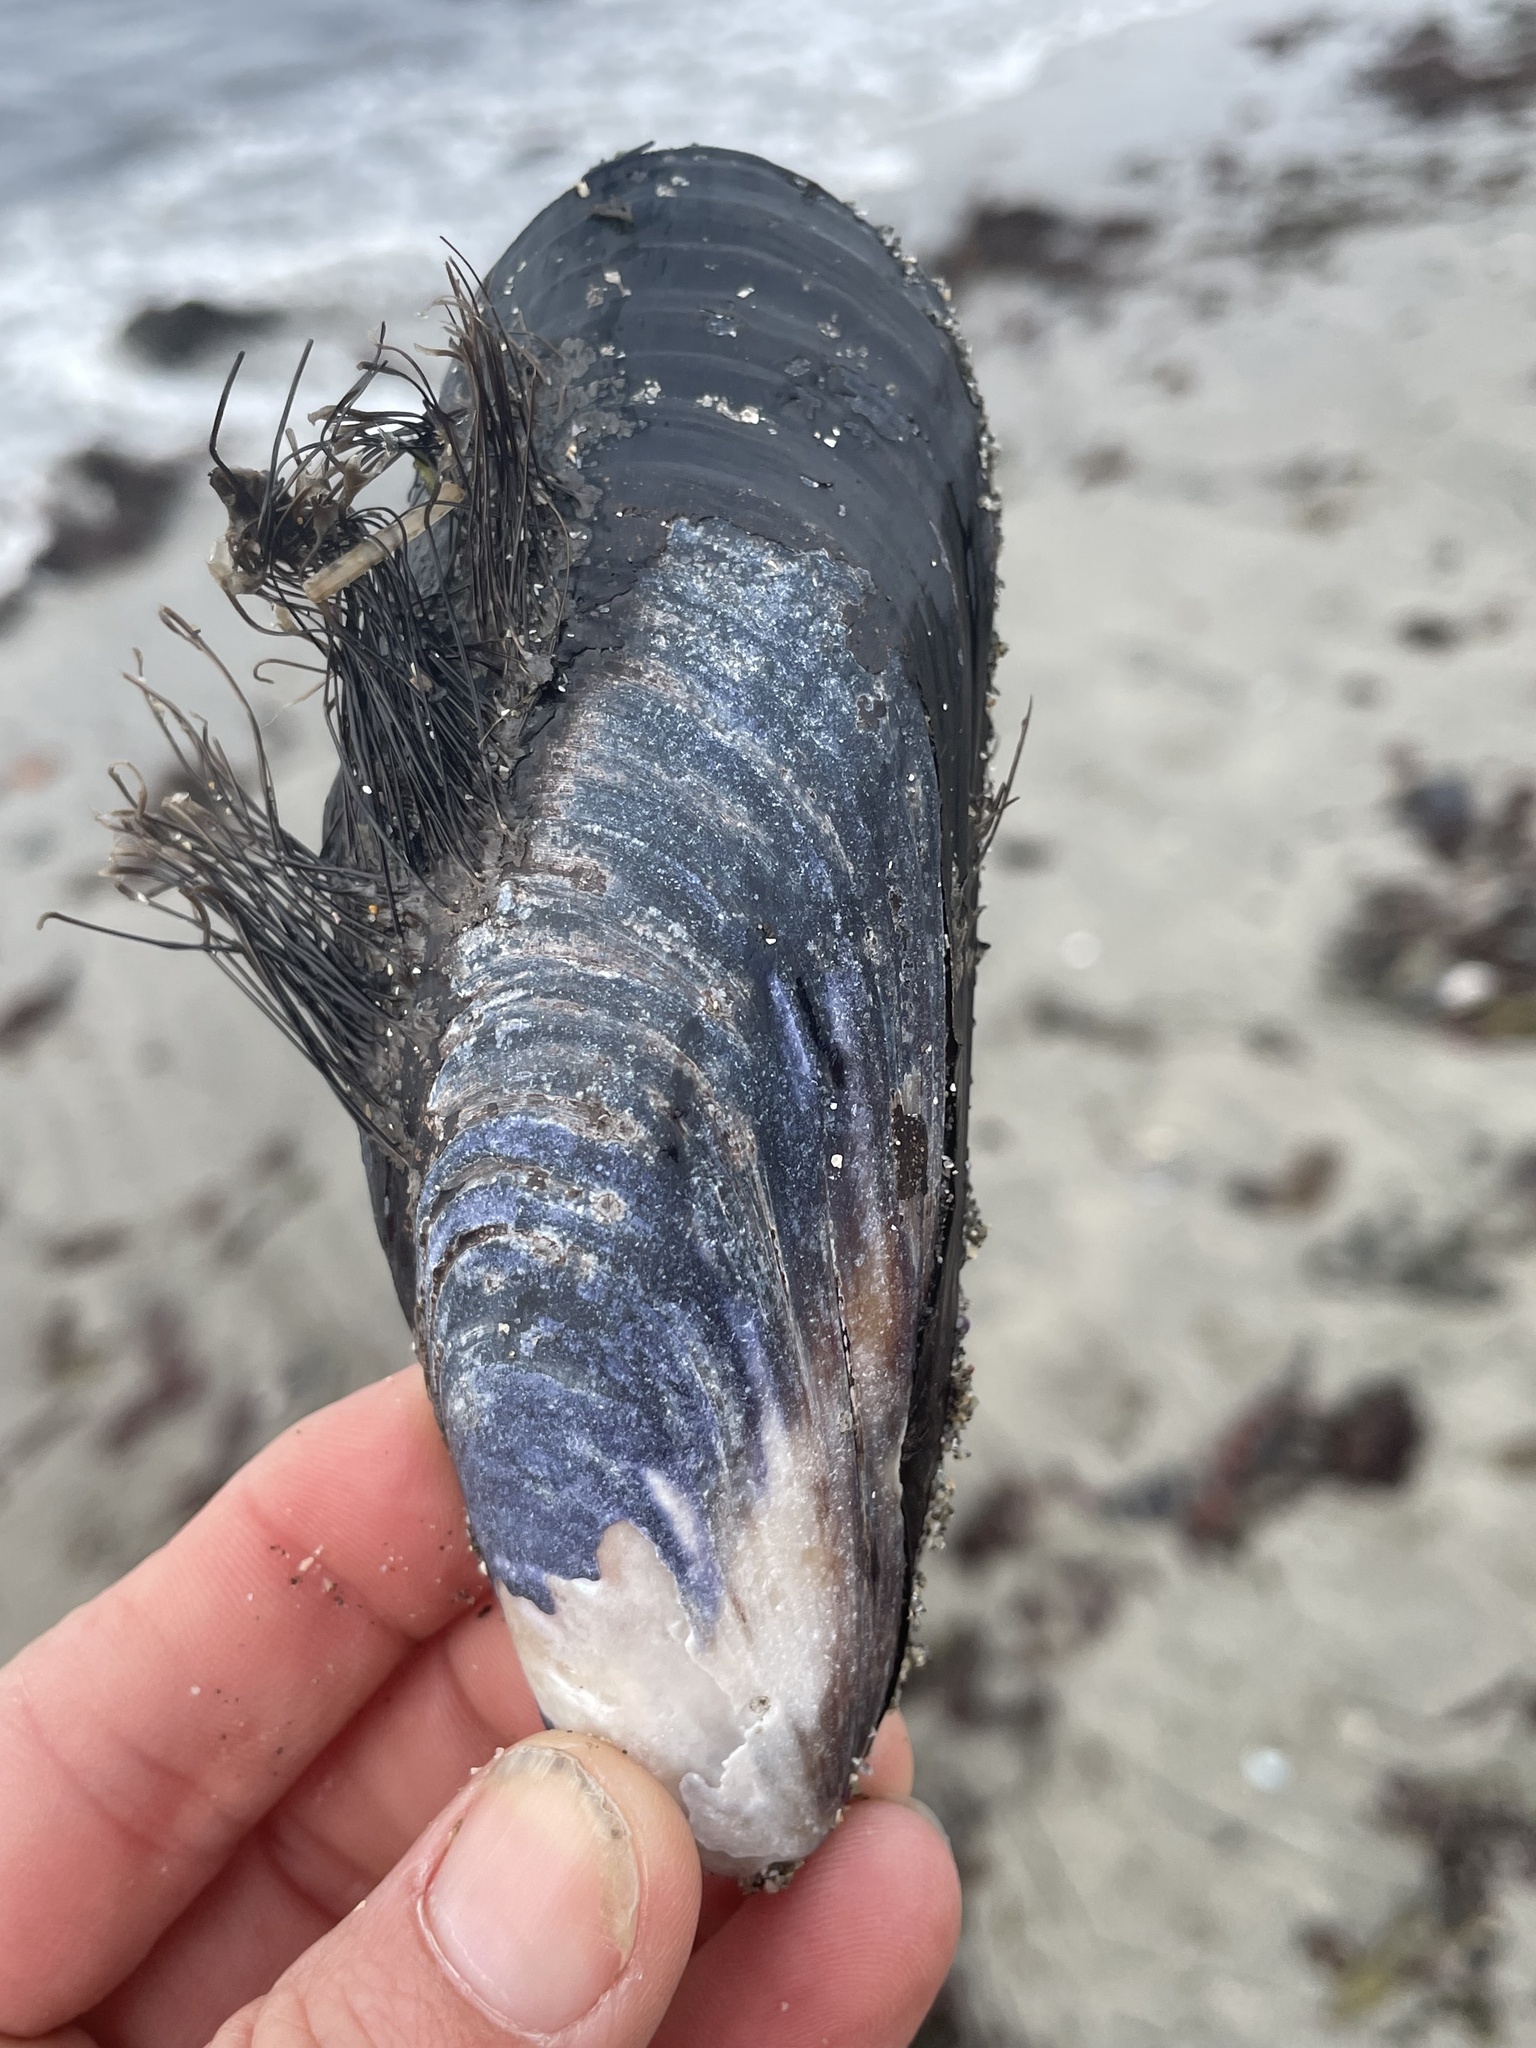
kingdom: Animalia
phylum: Mollusca
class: Bivalvia
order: Mytilida
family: Mytilidae
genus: Mytilus
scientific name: Mytilus californianus
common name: California mussel
